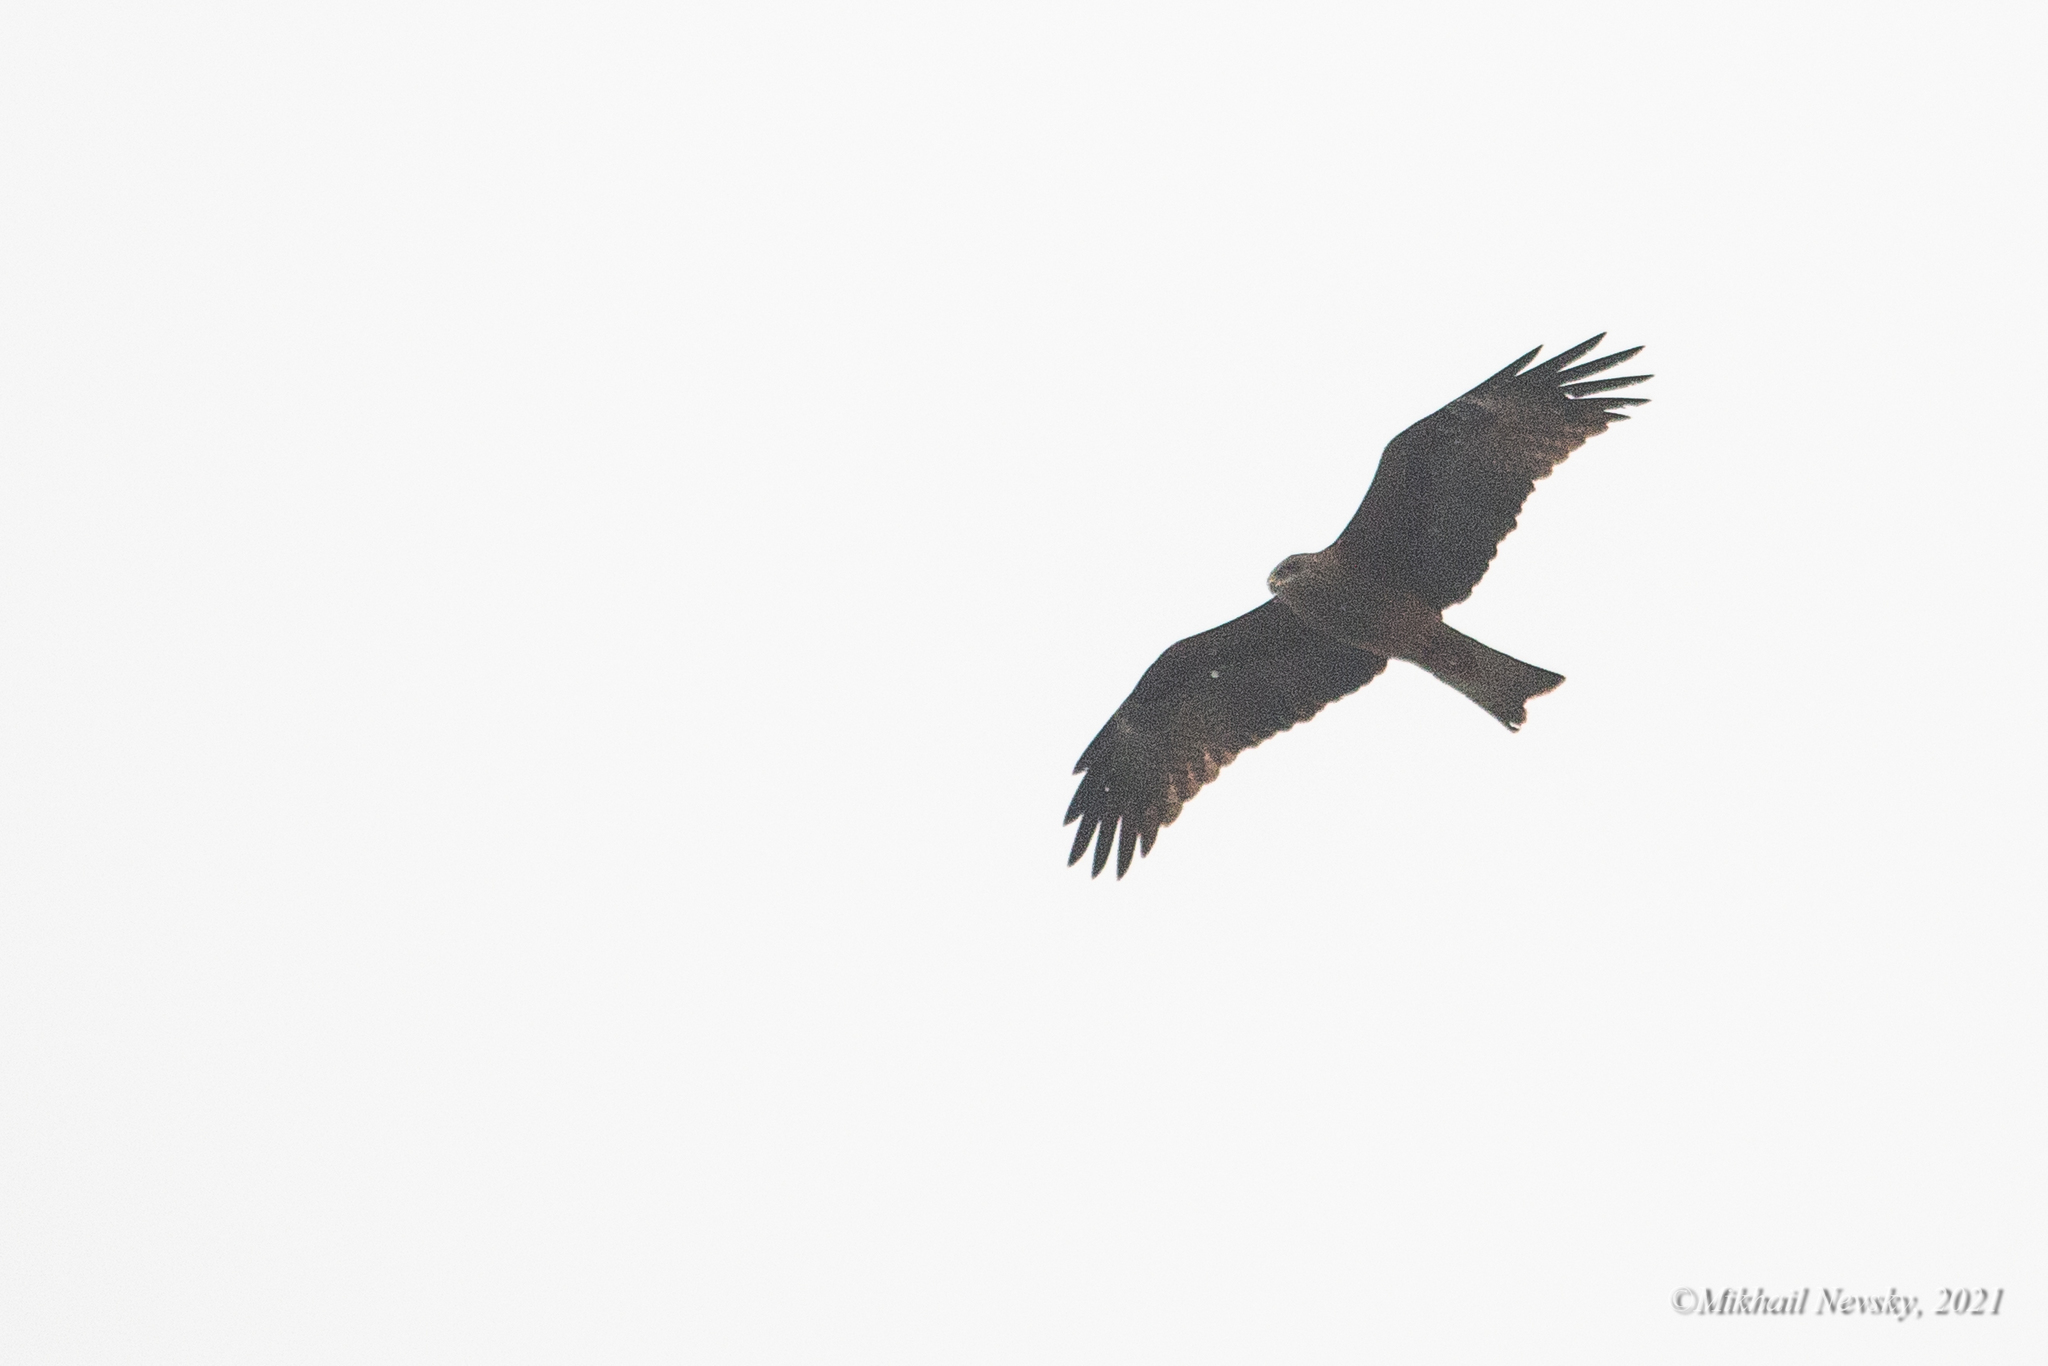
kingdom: Animalia
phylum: Chordata
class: Aves
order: Accipitriformes
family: Accipitridae
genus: Milvus
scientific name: Milvus migrans
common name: Black kite
